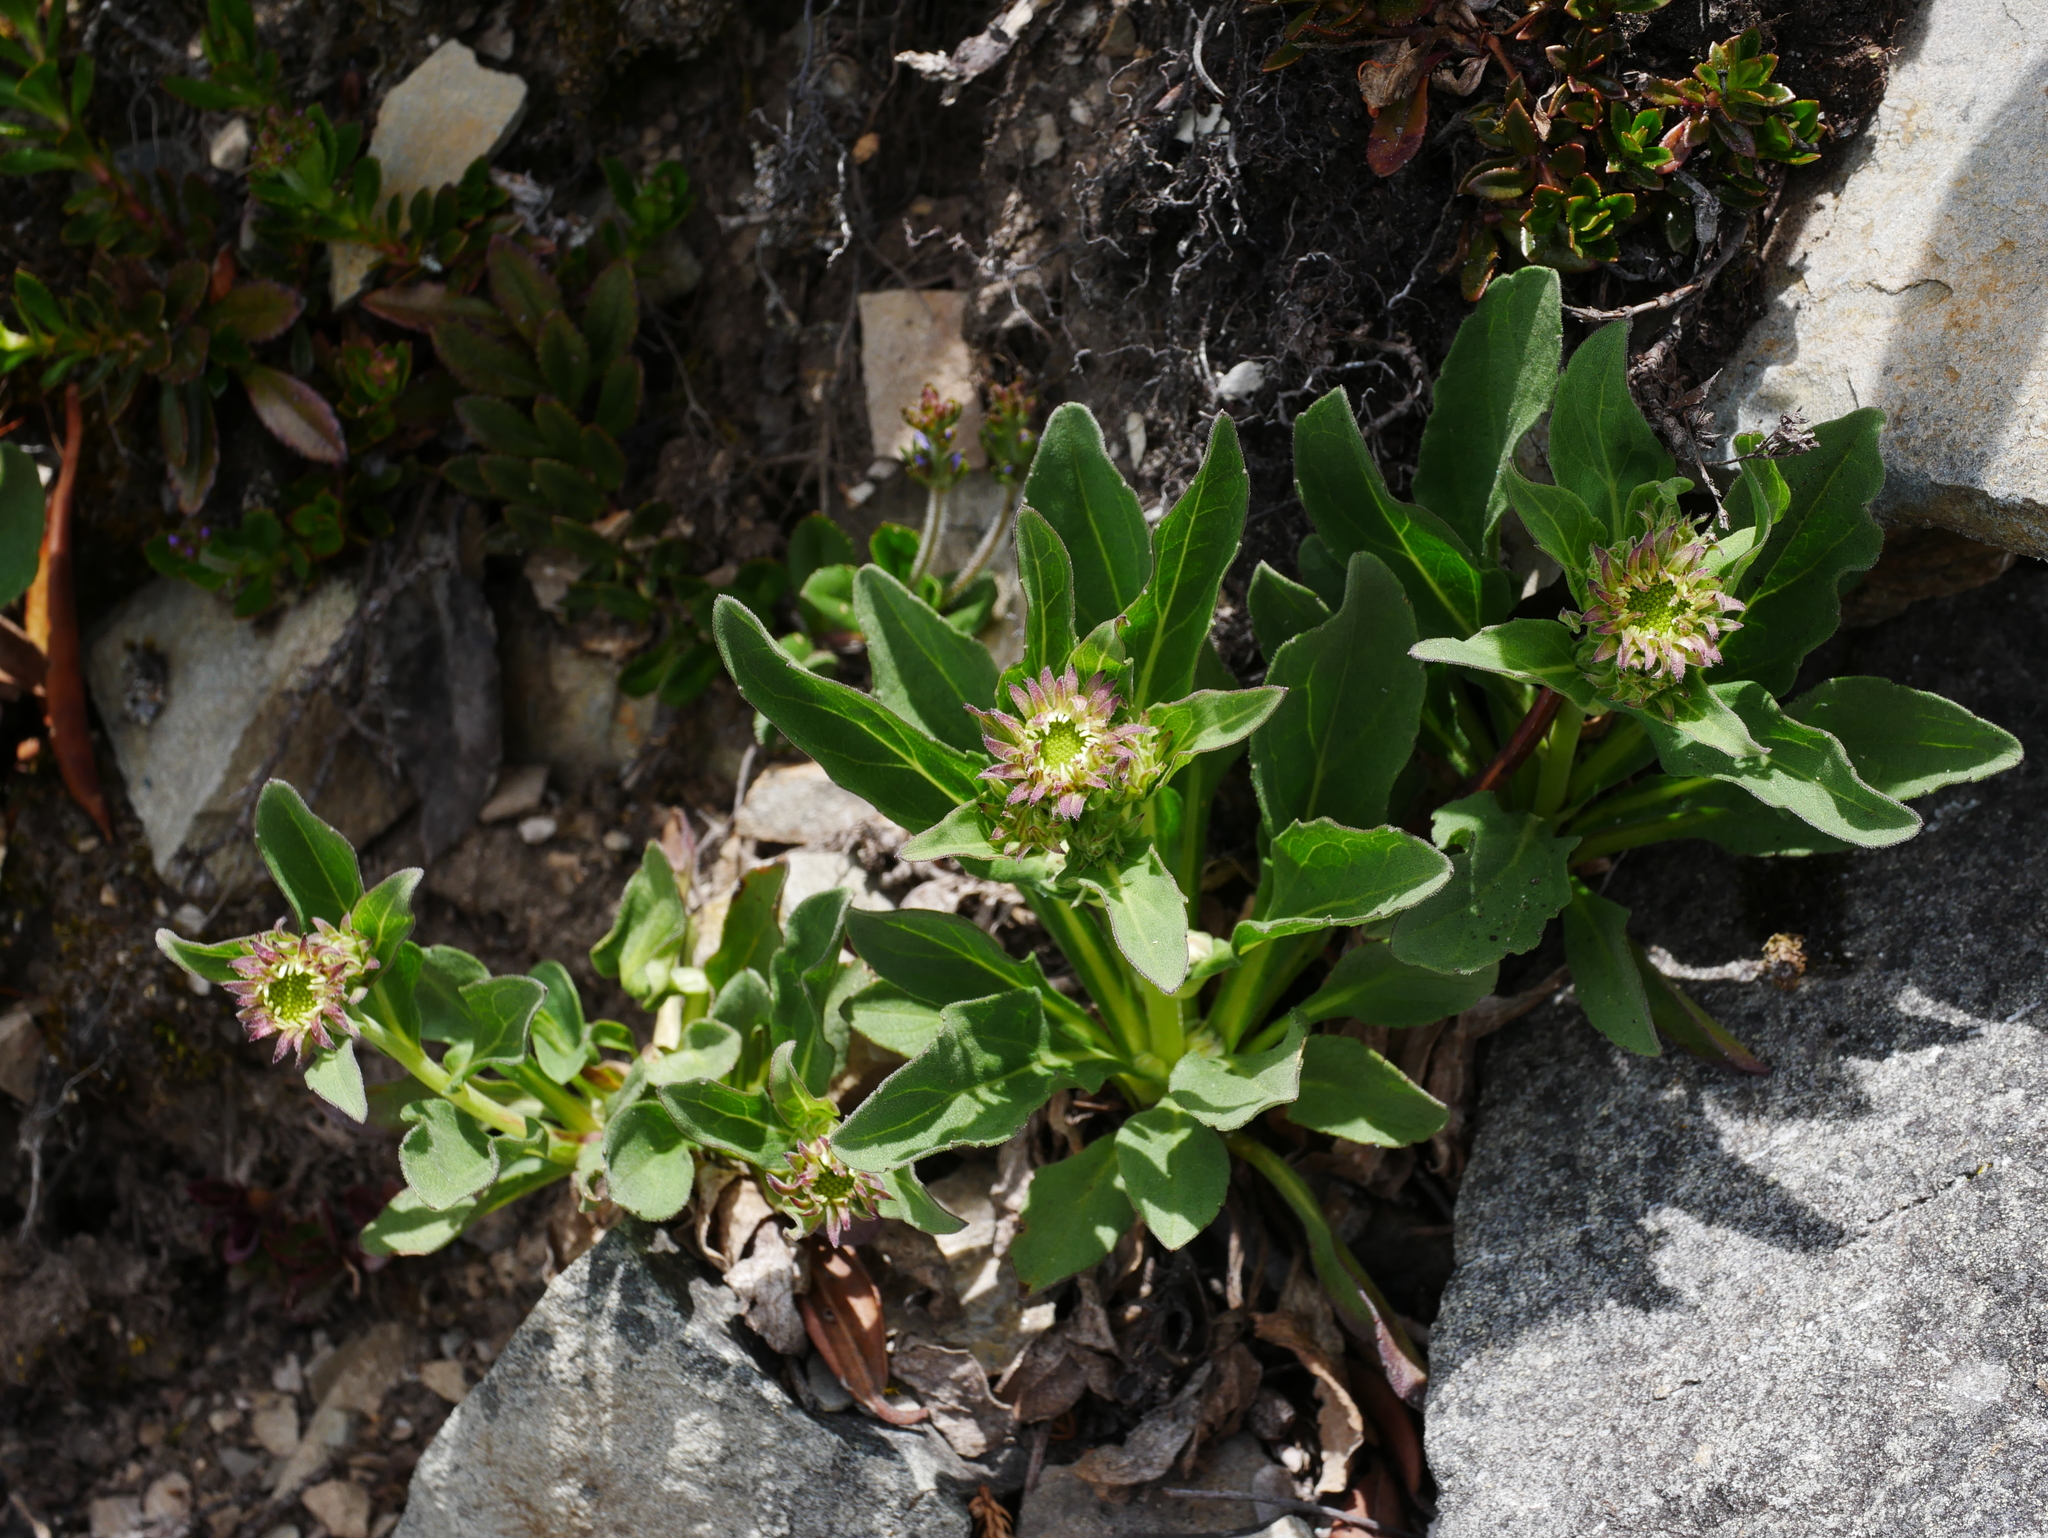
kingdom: Plantae
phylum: Tracheophyta
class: Magnoliopsida
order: Asterales
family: Asteraceae
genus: Aster
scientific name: Aster takasagomontanus
